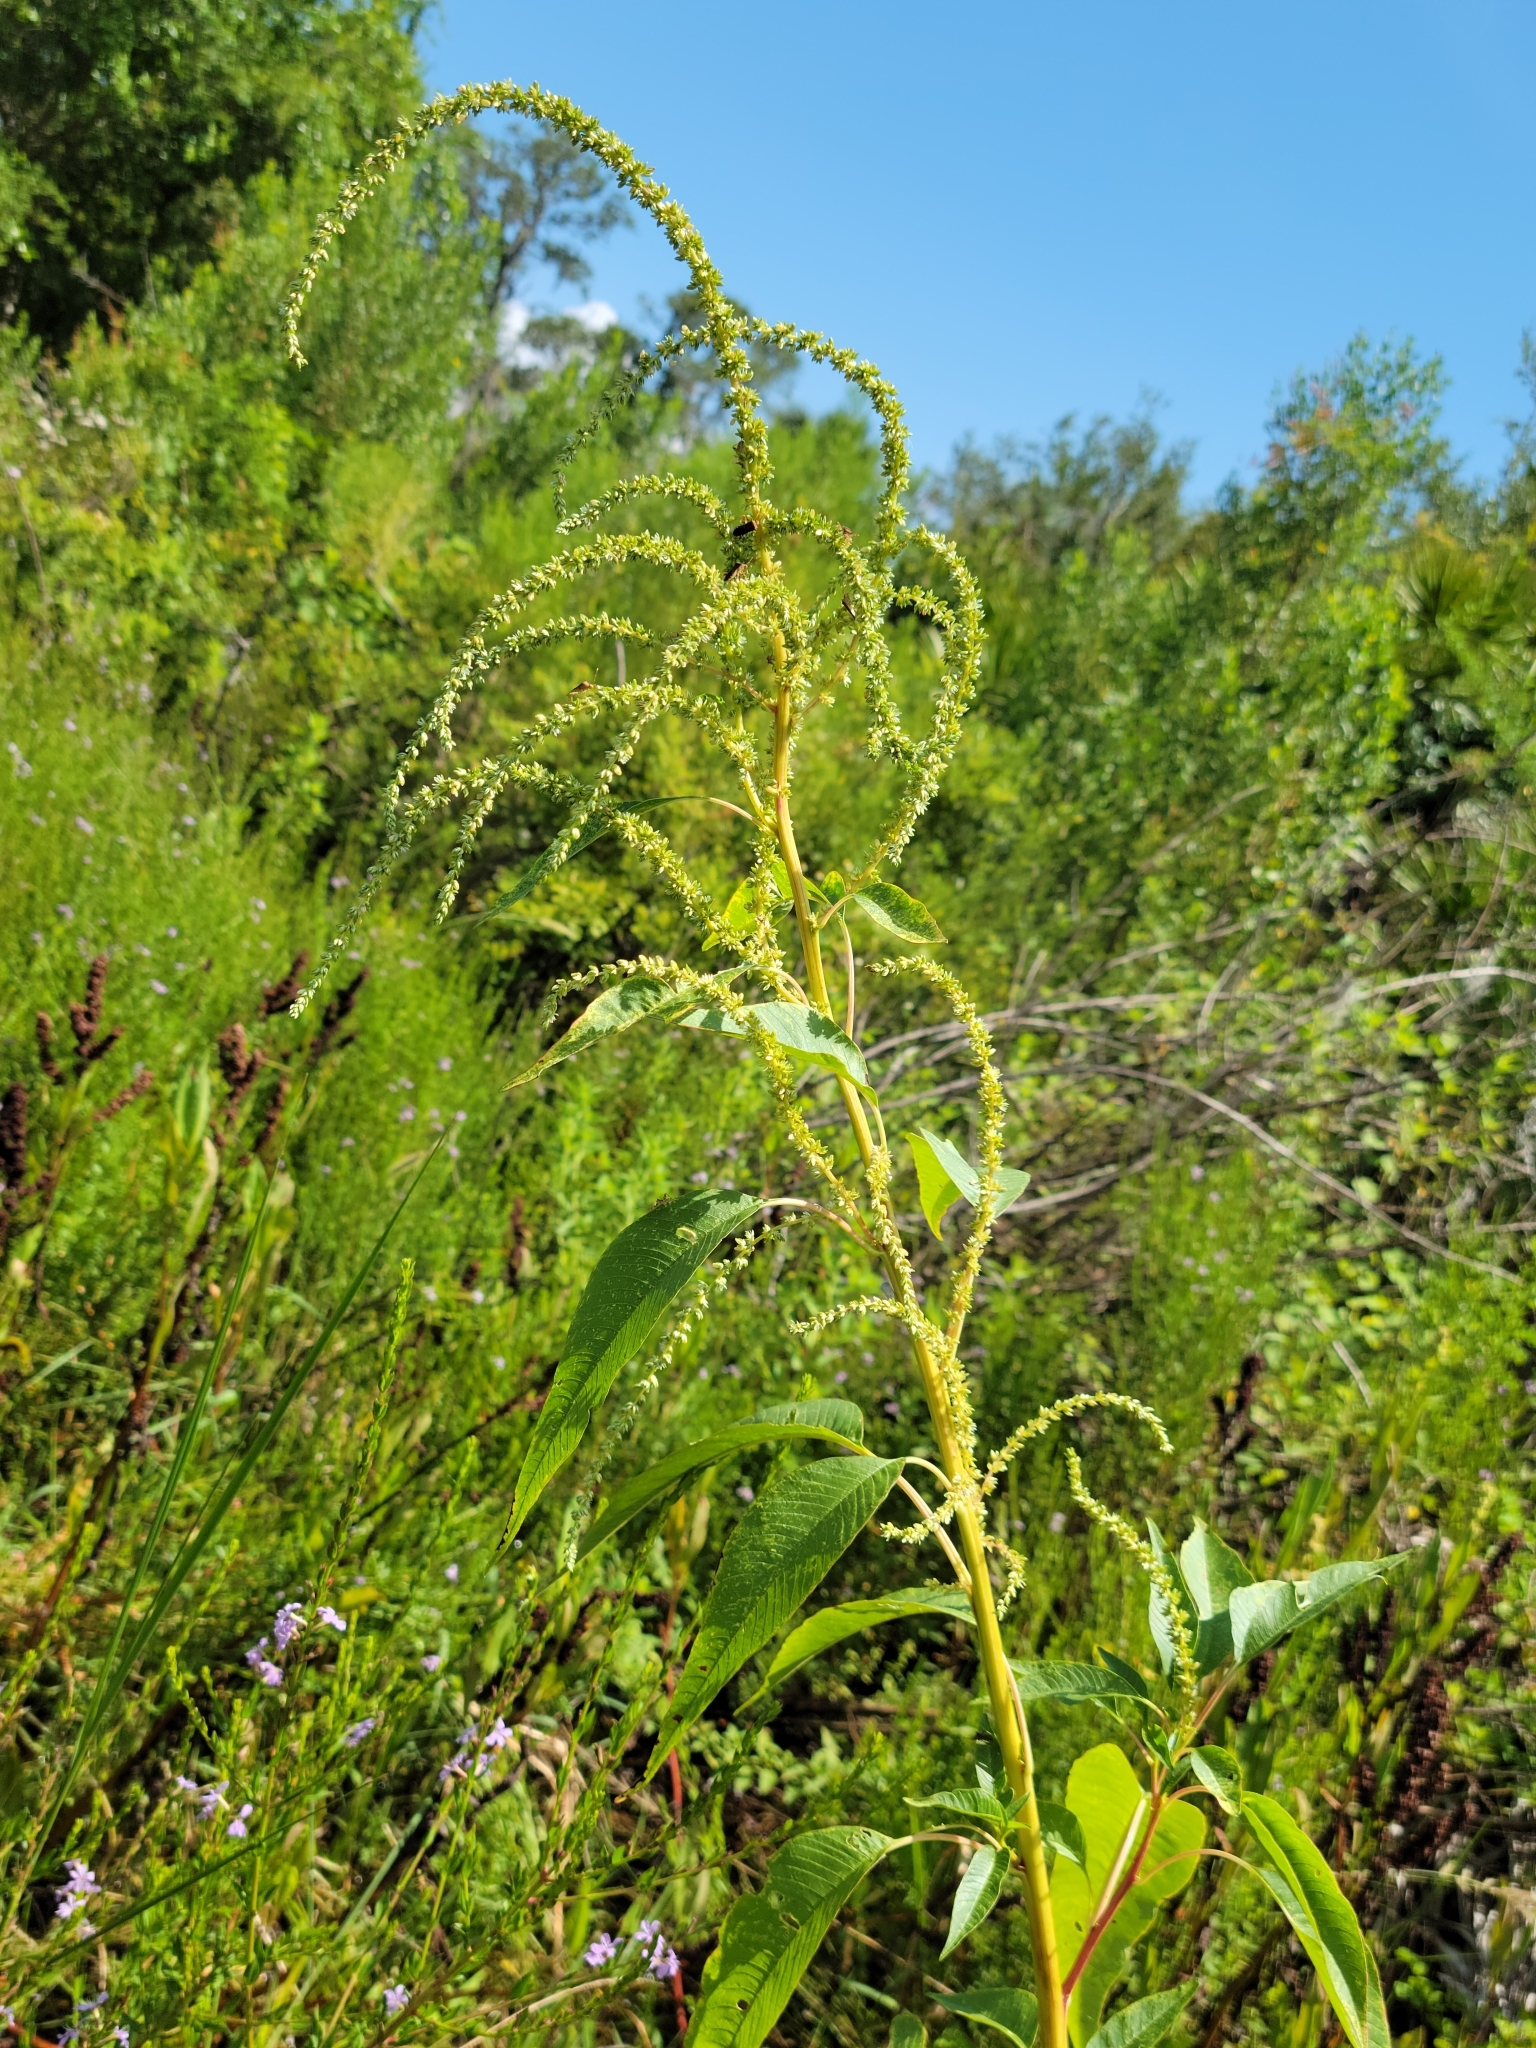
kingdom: Plantae
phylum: Tracheophyta
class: Magnoliopsida
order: Caryophyllales
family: Amaranthaceae
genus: Amaranthus
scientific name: Amaranthus australis
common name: Southern amaranth
